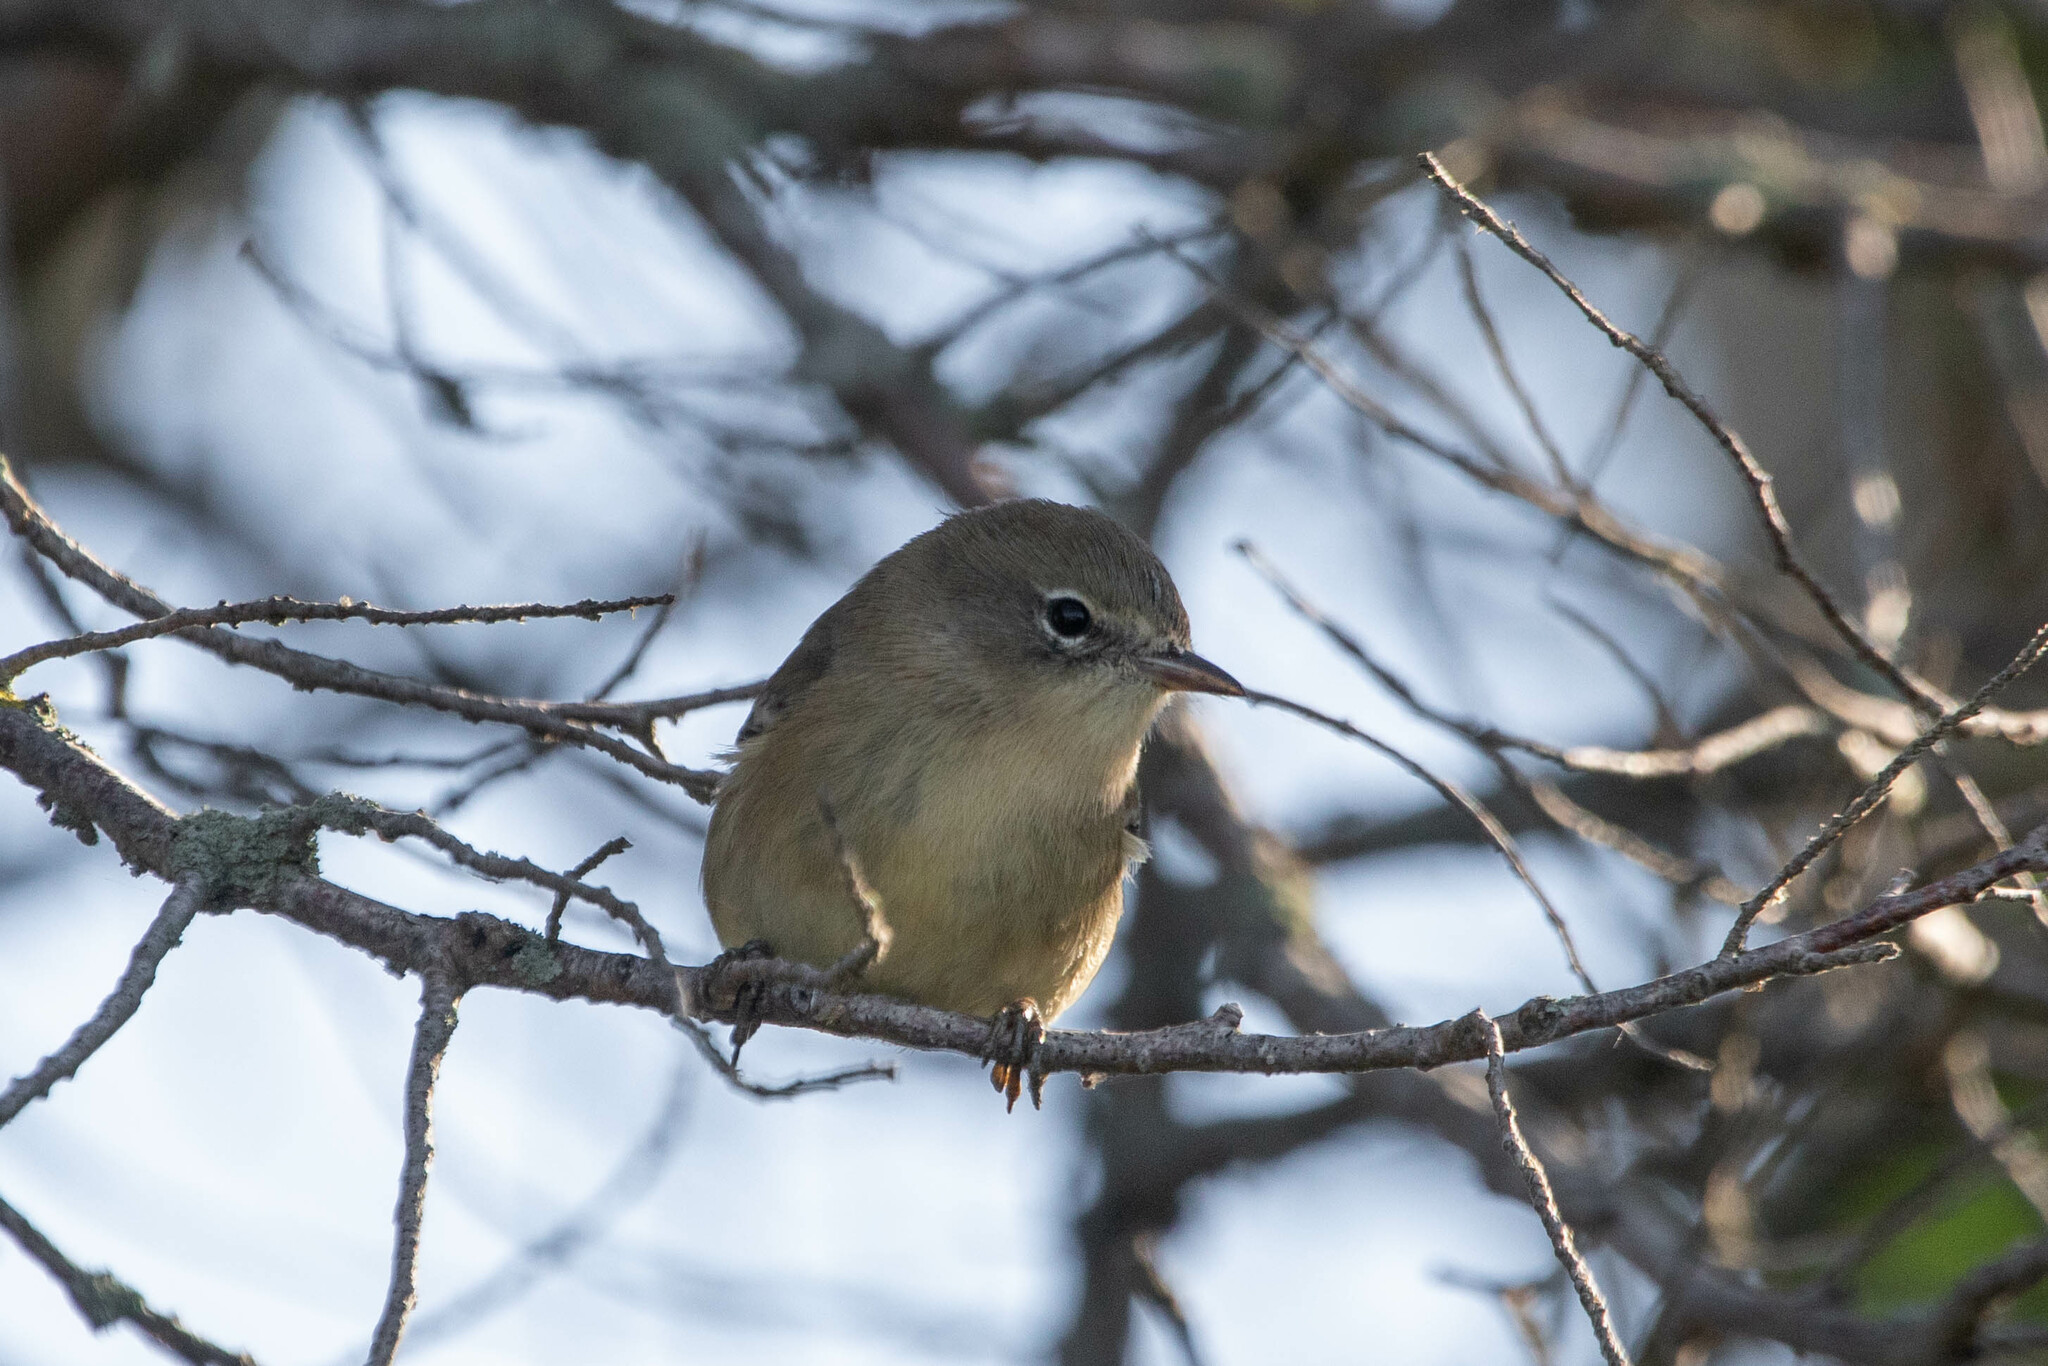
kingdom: Animalia
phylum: Chordata
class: Aves
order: Passeriformes
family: Parulidae
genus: Setophaga
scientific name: Setophaga pinus
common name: Pine warbler
